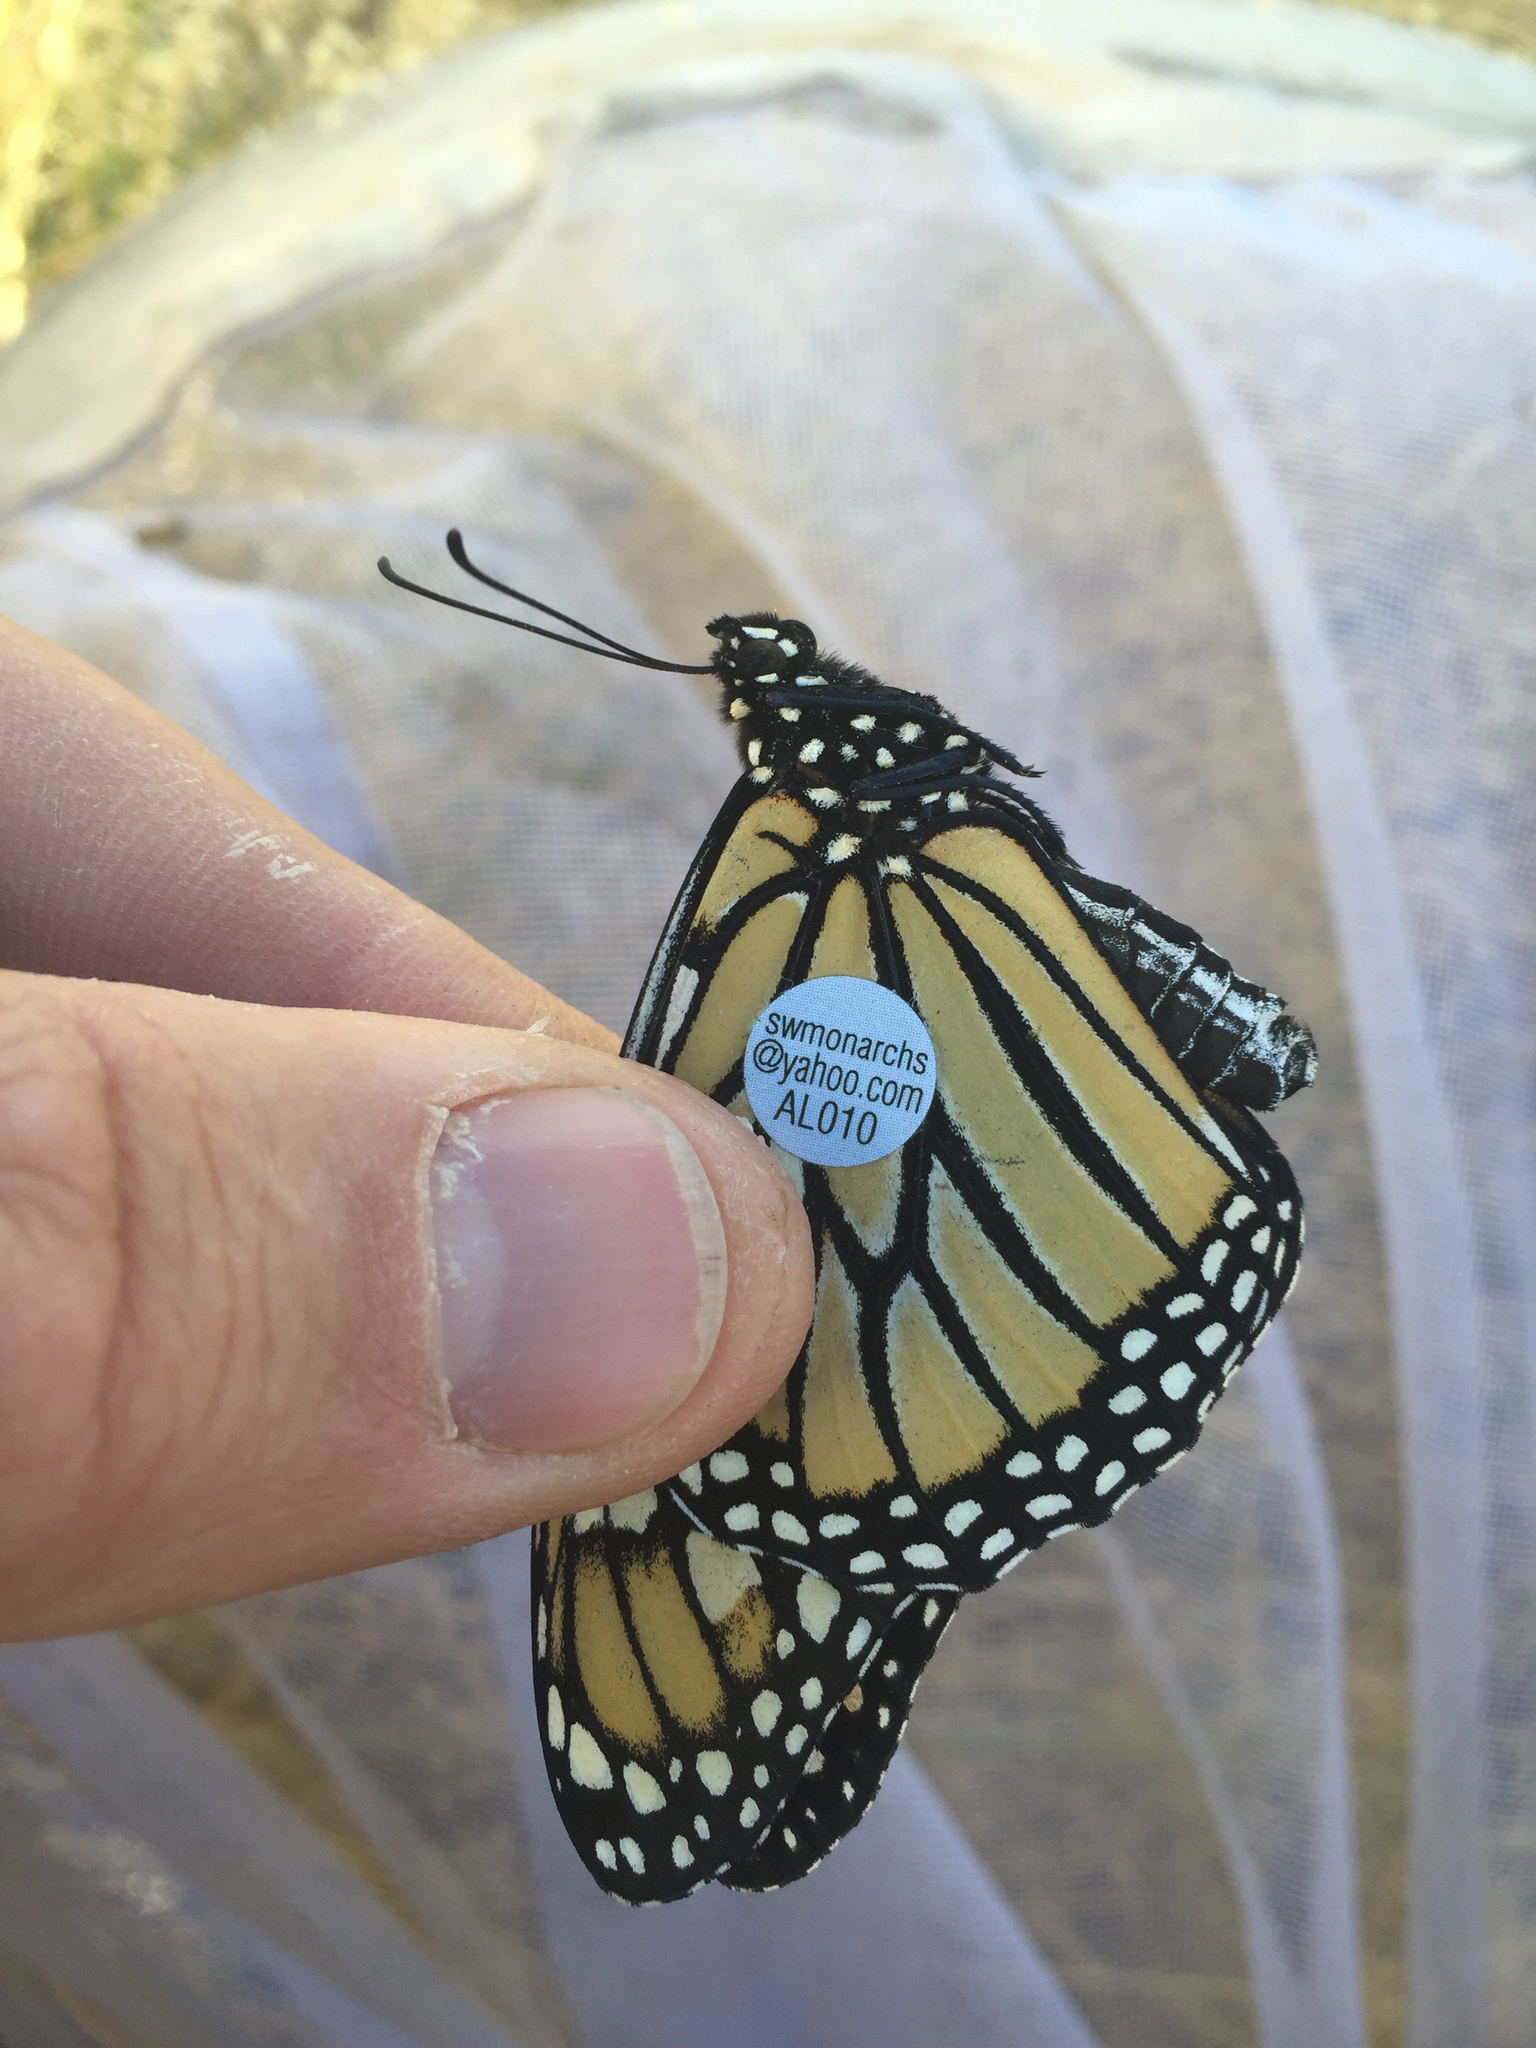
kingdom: Animalia
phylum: Arthropoda
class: Insecta
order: Lepidoptera
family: Nymphalidae
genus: Danaus
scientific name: Danaus plexippus
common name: Monarch
